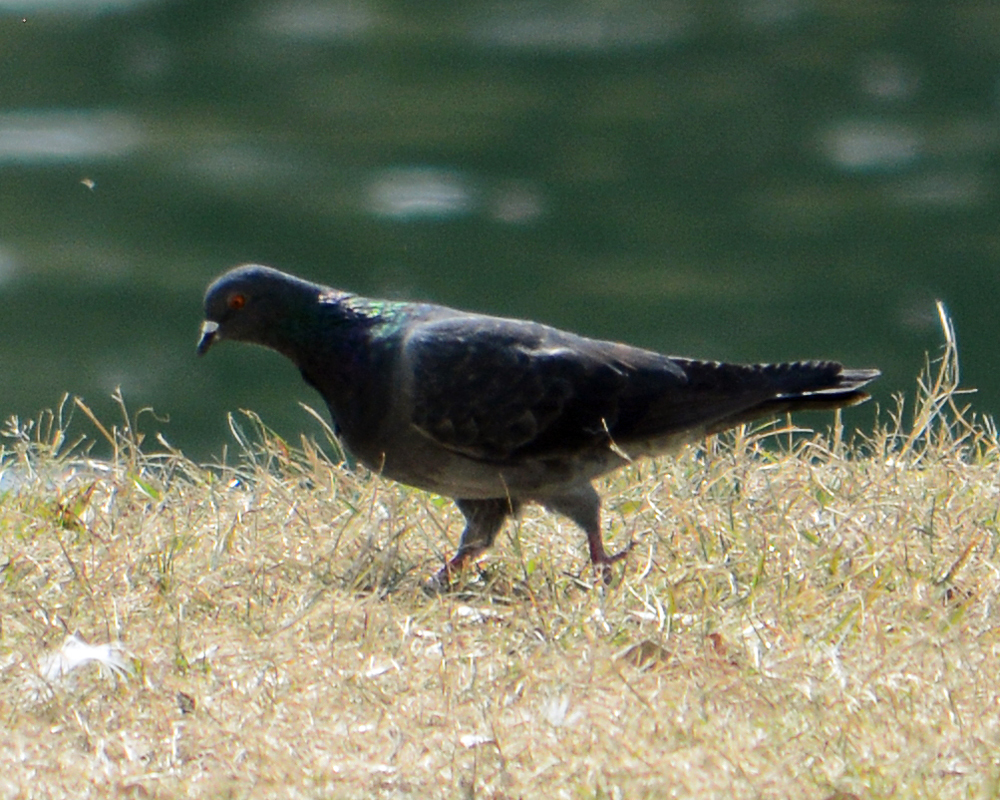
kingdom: Animalia
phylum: Chordata
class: Aves
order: Columbiformes
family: Columbidae
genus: Columba
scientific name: Columba livia
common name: Rock pigeon
